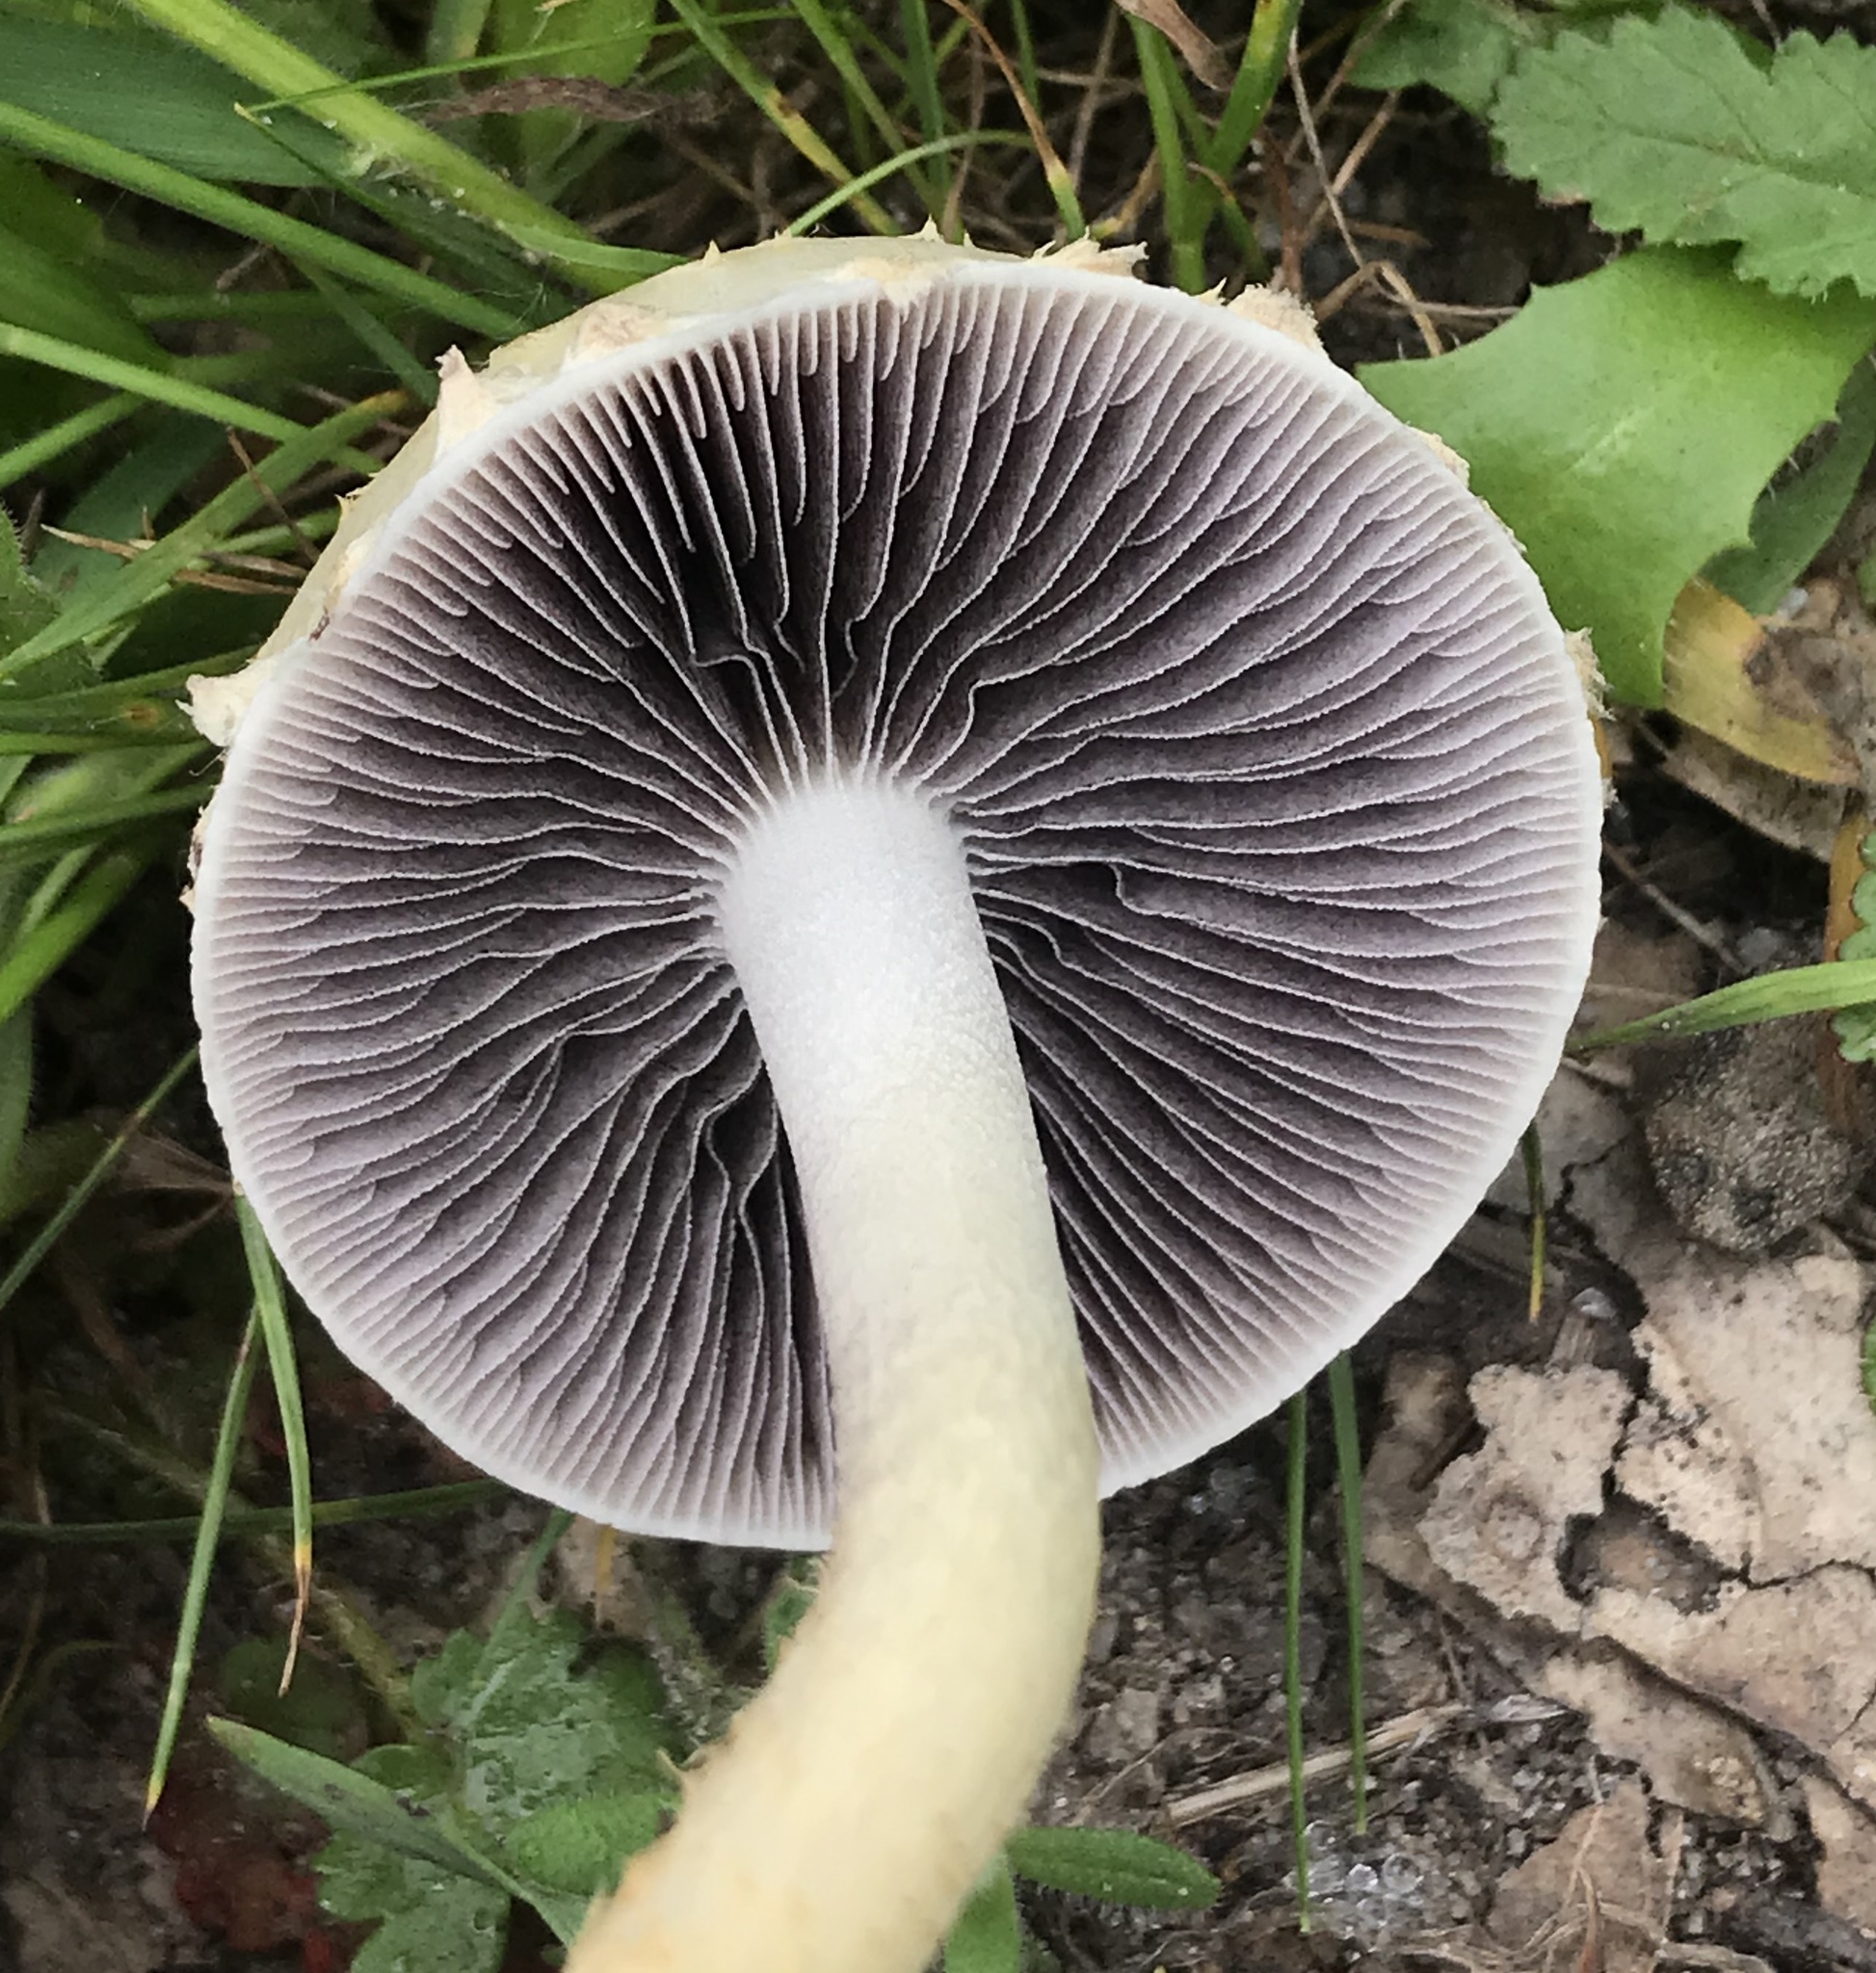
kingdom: Fungi
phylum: Basidiomycota
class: Agaricomycetes
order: Agaricales
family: Strophariaceae
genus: Leratiomyces
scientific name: Leratiomyces percevalii
